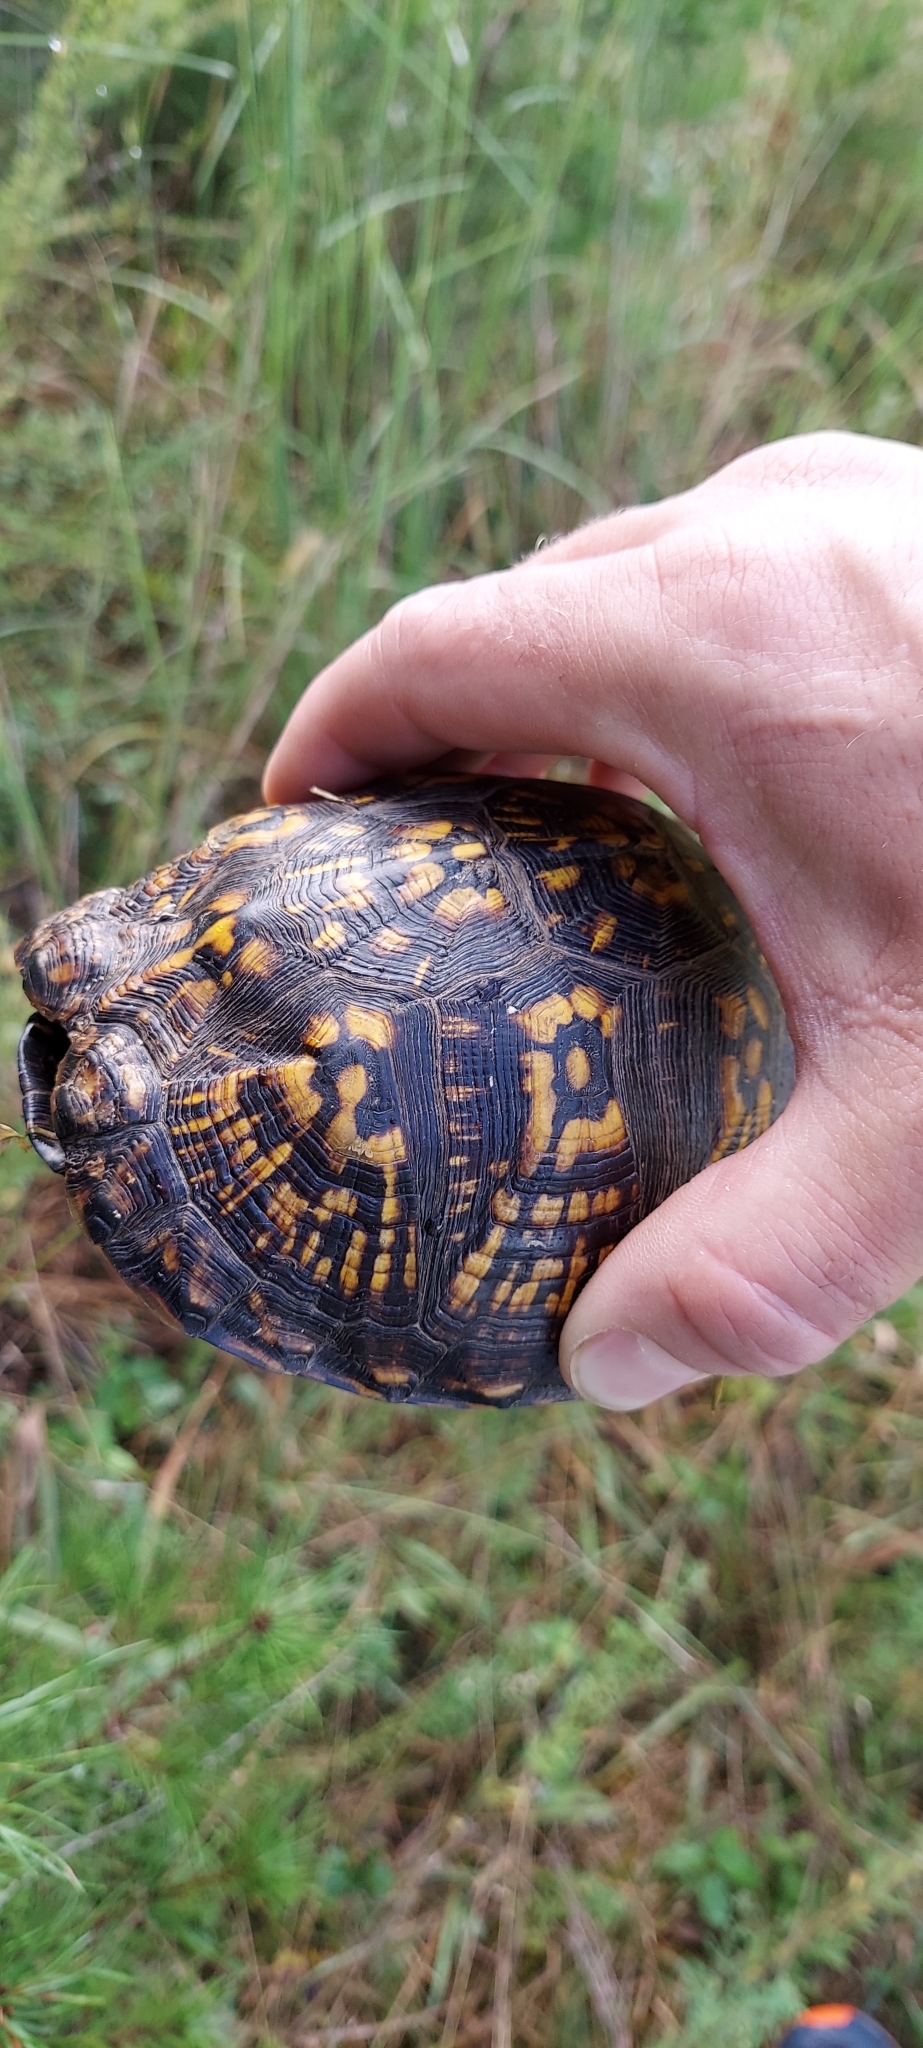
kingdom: Animalia
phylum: Chordata
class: Testudines
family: Emydidae
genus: Terrapene
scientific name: Terrapene carolina
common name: Common box turtle
